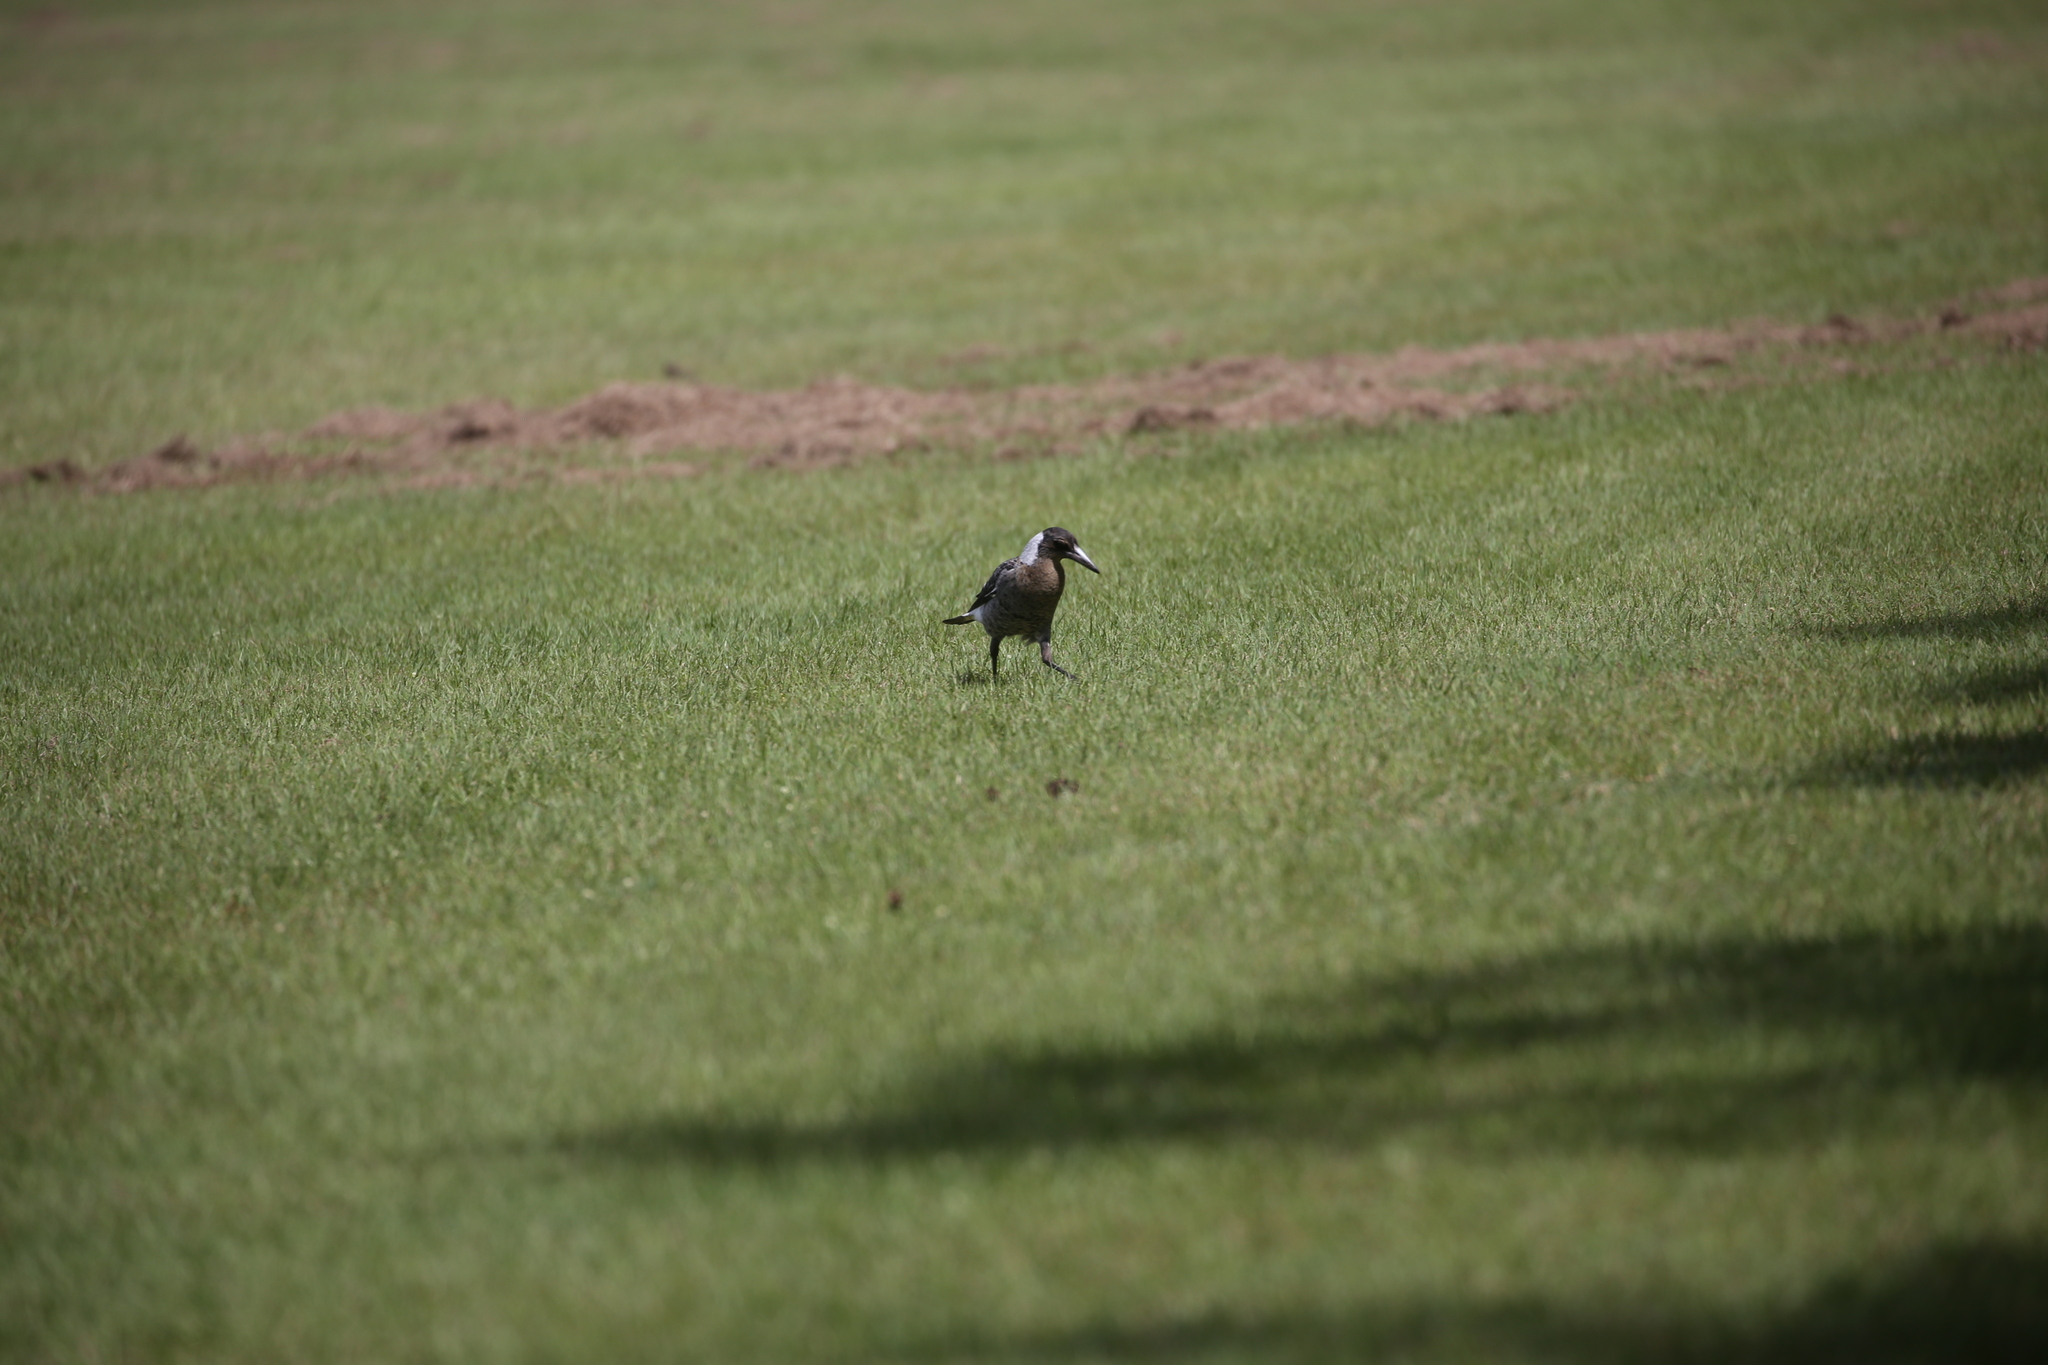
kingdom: Animalia
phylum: Chordata
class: Aves
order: Passeriformes
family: Cracticidae
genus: Gymnorhina
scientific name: Gymnorhina tibicen
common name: Australian magpie
